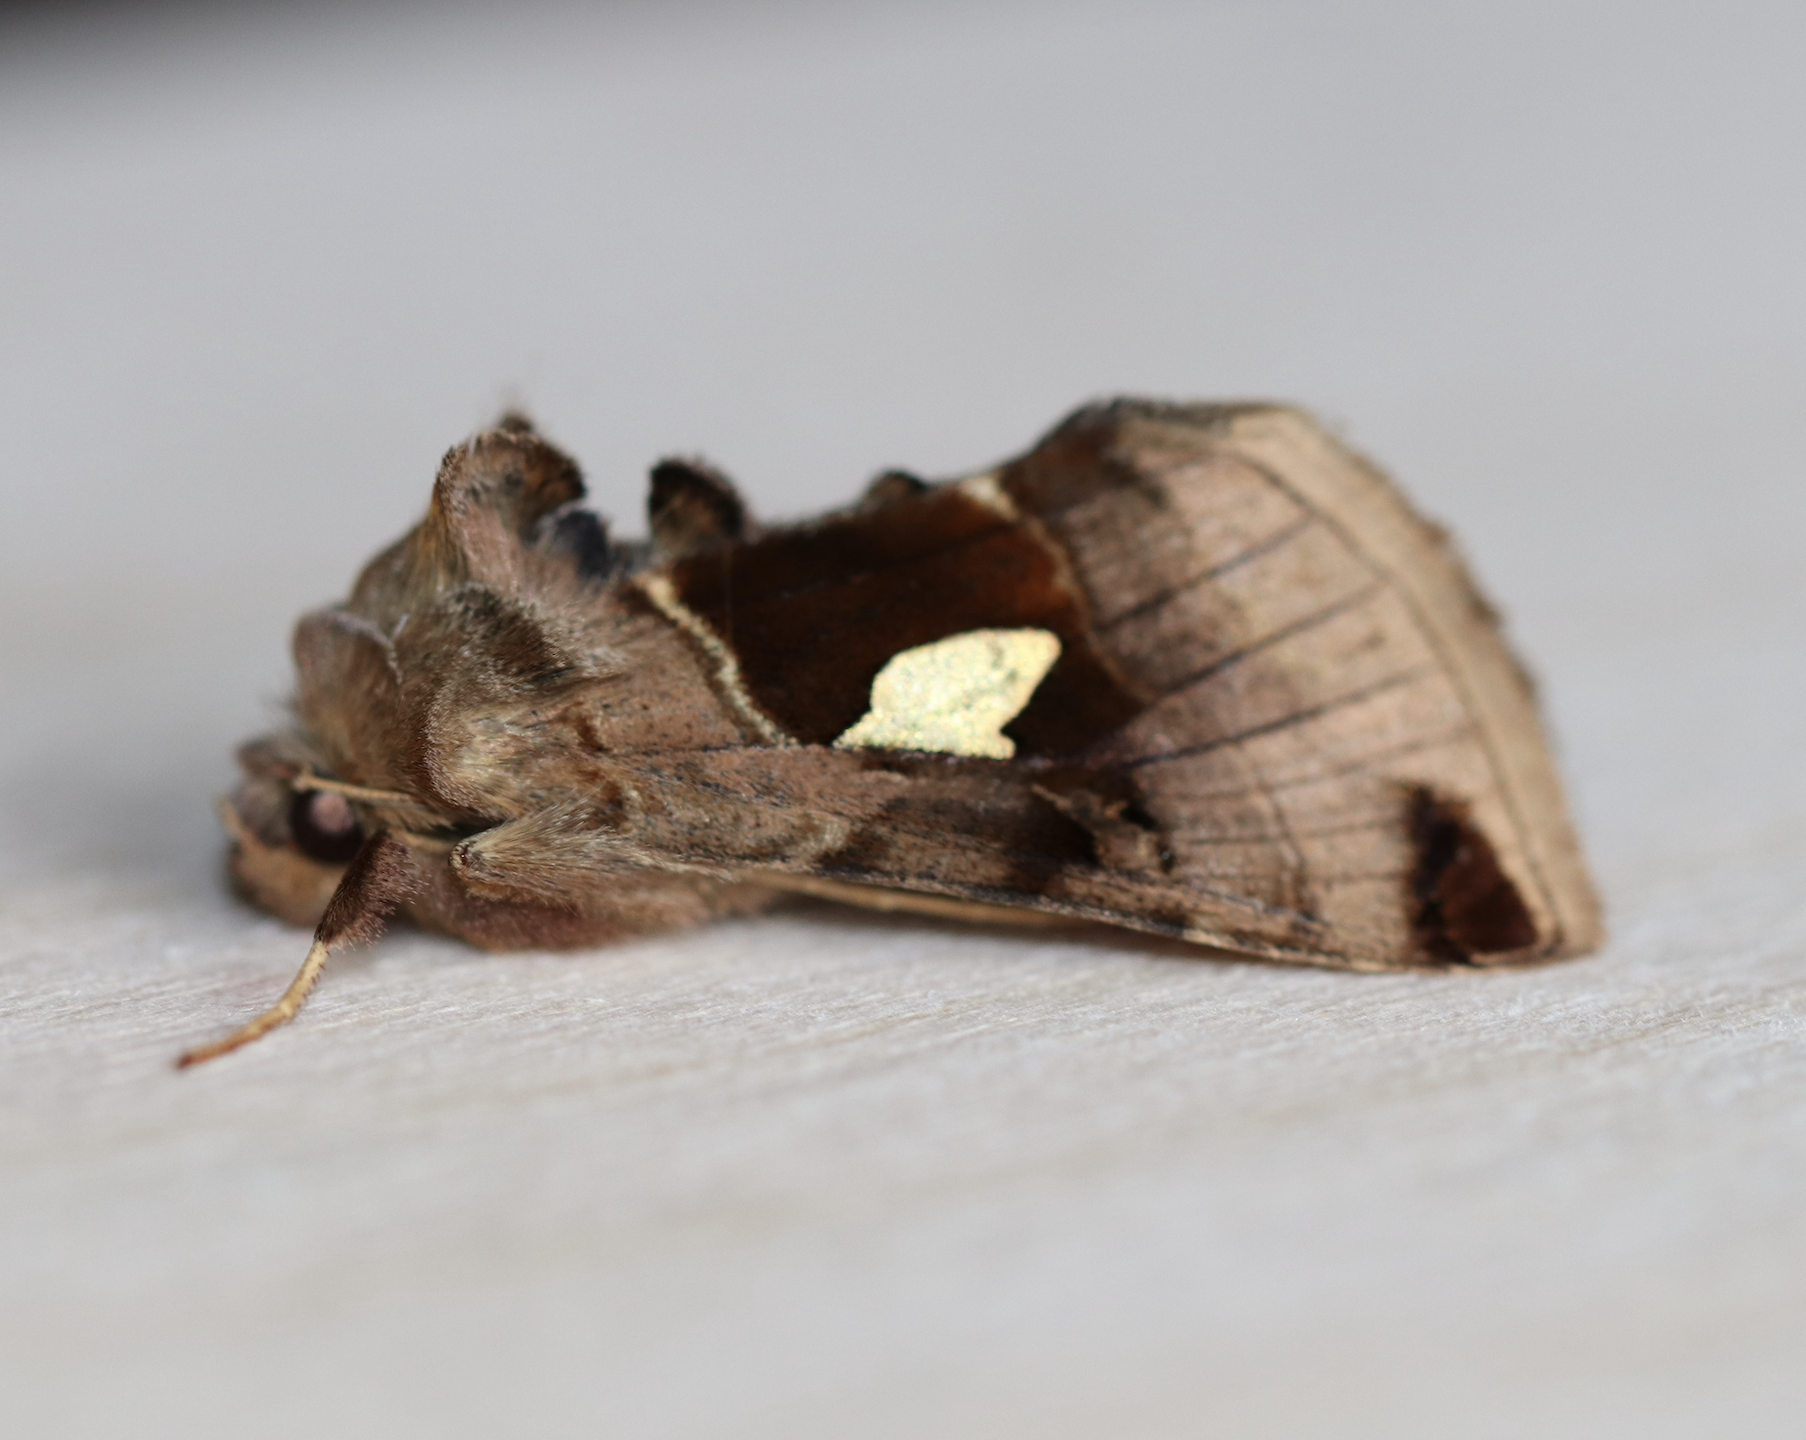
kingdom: Animalia
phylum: Arthropoda
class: Insecta
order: Lepidoptera
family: Noctuidae
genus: Autographa
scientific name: Autographa aemula
